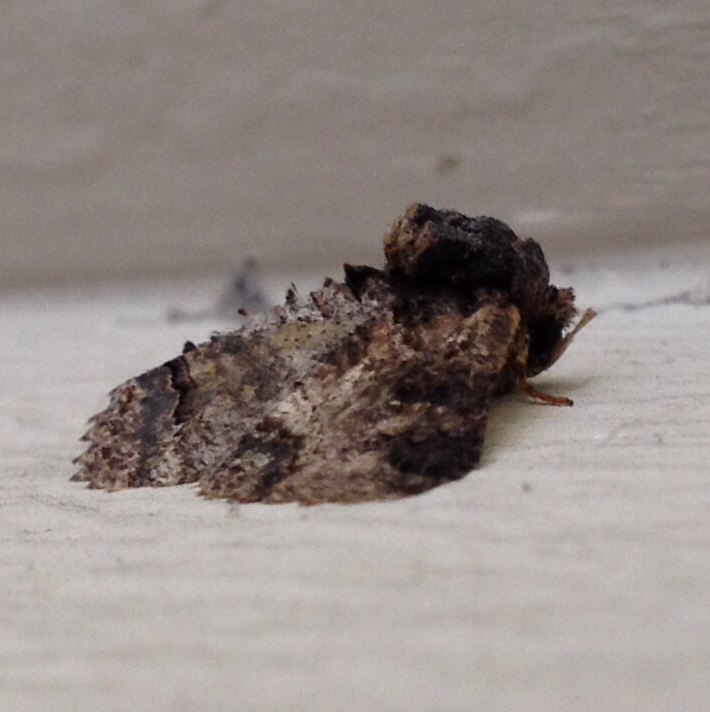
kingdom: Animalia
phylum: Arthropoda
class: Insecta
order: Lepidoptera
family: Erebidae
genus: Zale
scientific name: Zale lunata
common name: Lunate zale moth
